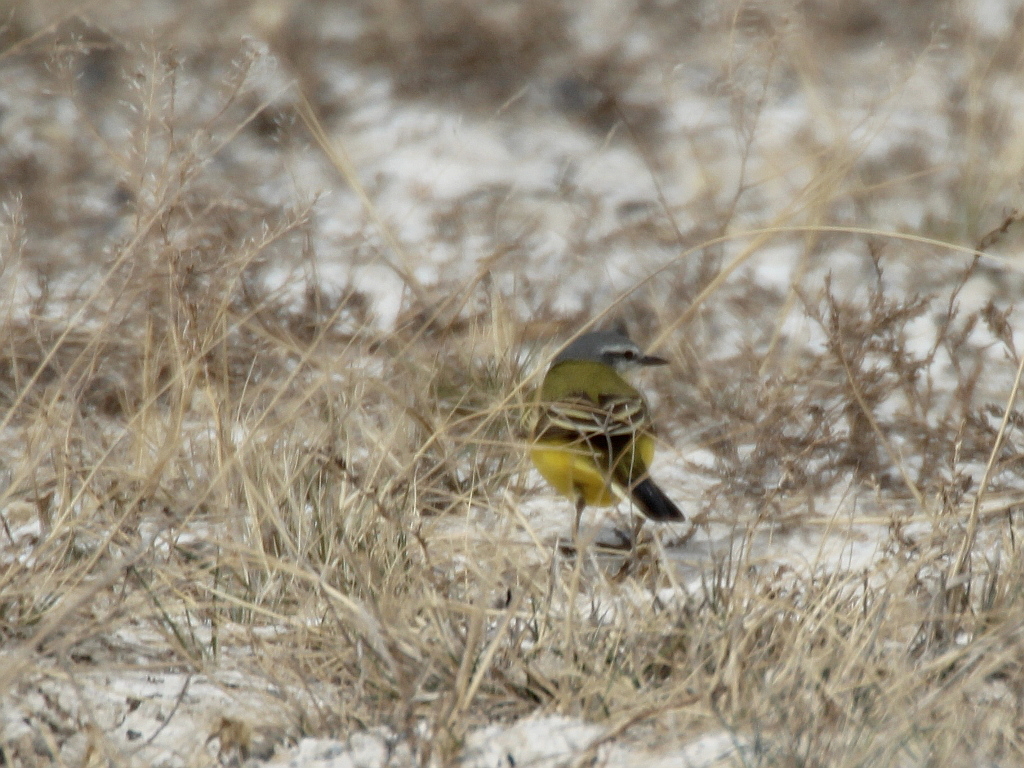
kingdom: Animalia
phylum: Chordata
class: Aves
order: Passeriformes
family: Motacillidae
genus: Motacilla
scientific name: Motacilla flava
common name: Western yellow wagtail
